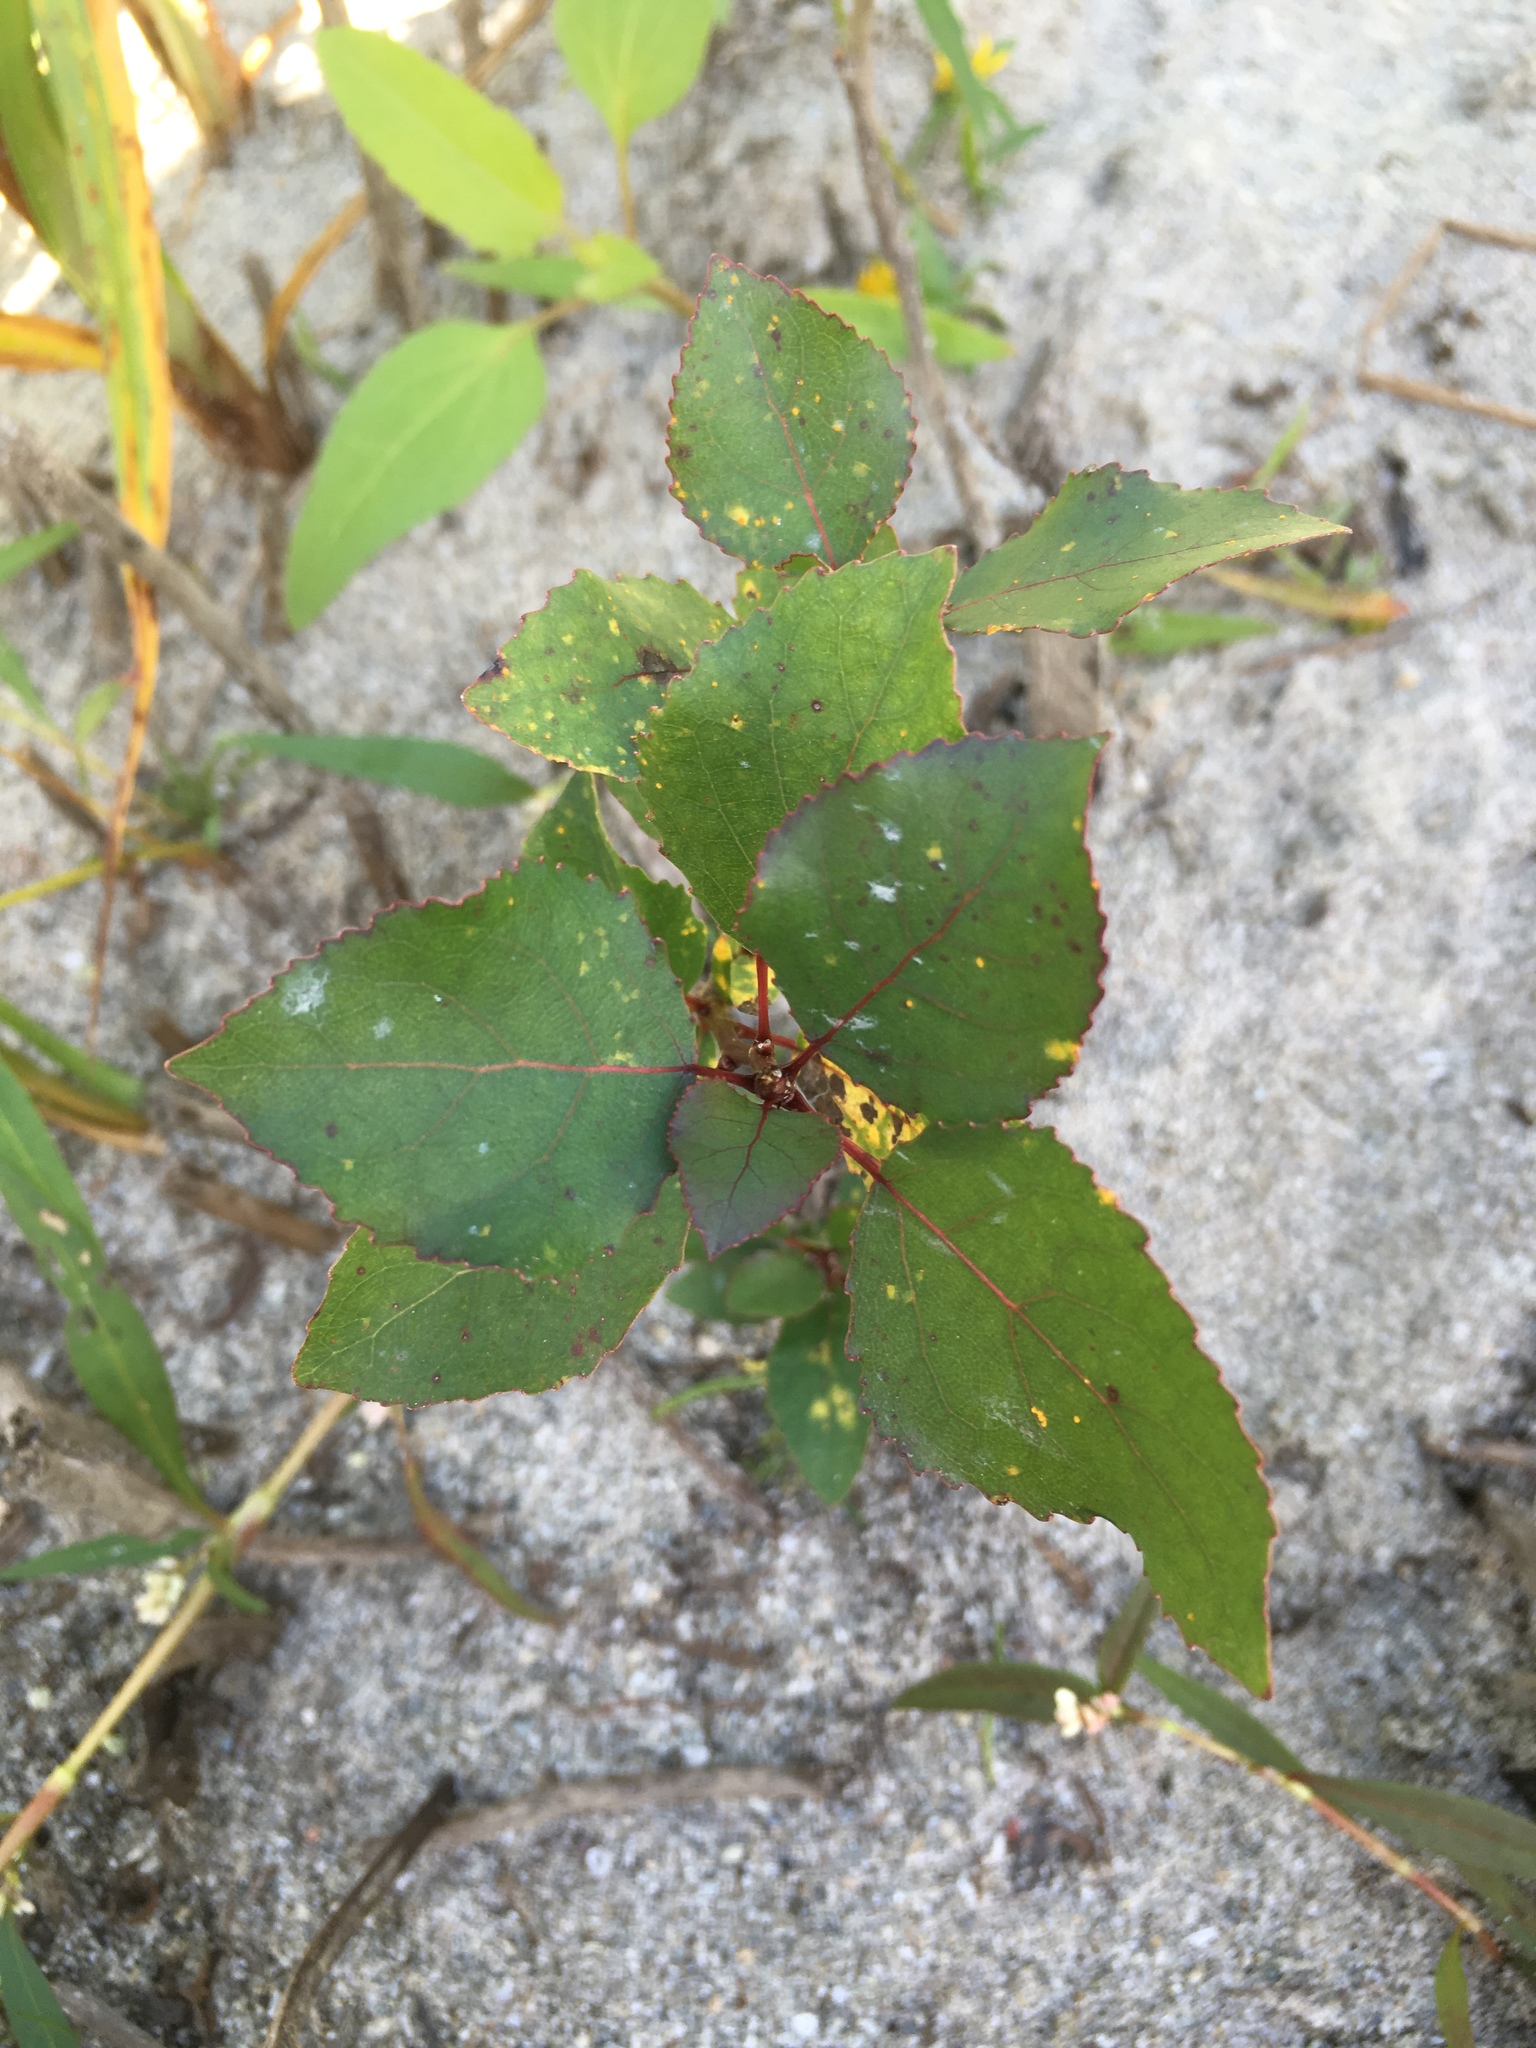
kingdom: Plantae
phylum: Tracheophyta
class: Magnoliopsida
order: Malpighiales
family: Salicaceae
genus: Populus
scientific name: Populus deltoides
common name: Eastern cottonwood
